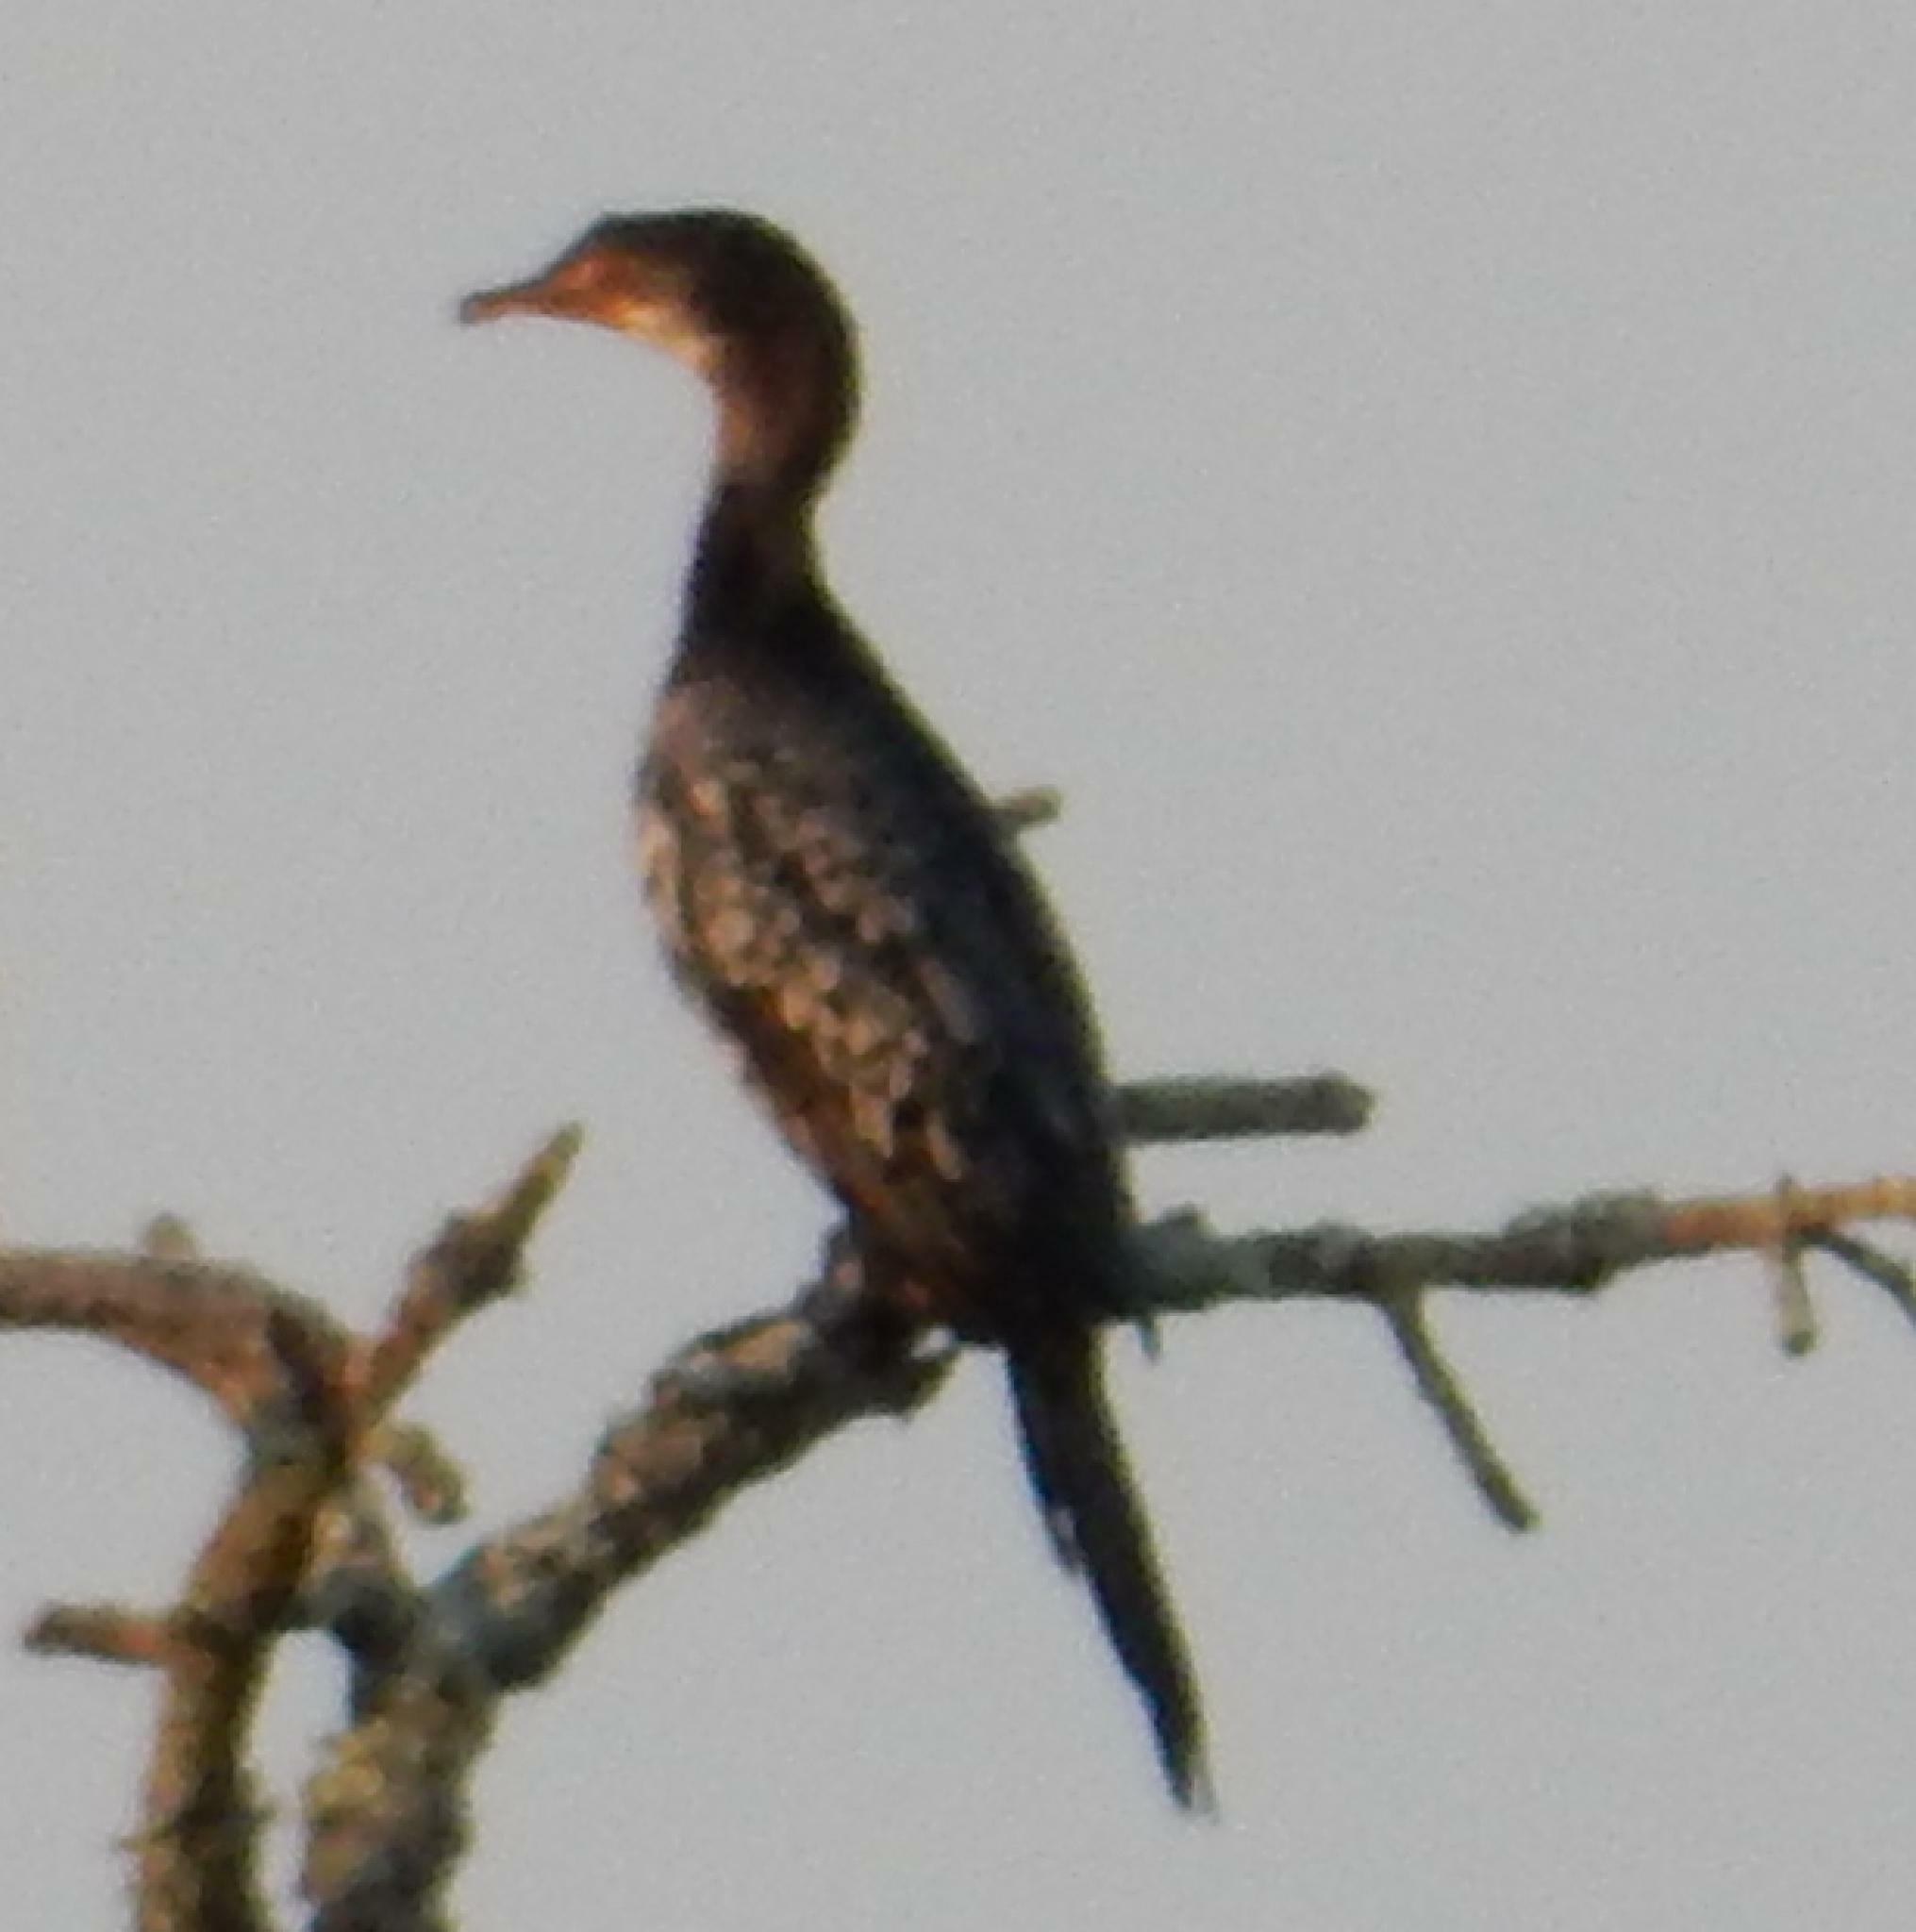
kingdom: Animalia
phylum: Chordata
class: Aves
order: Suliformes
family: Phalacrocoracidae
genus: Microcarbo
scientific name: Microcarbo africanus
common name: Long-tailed cormorant
